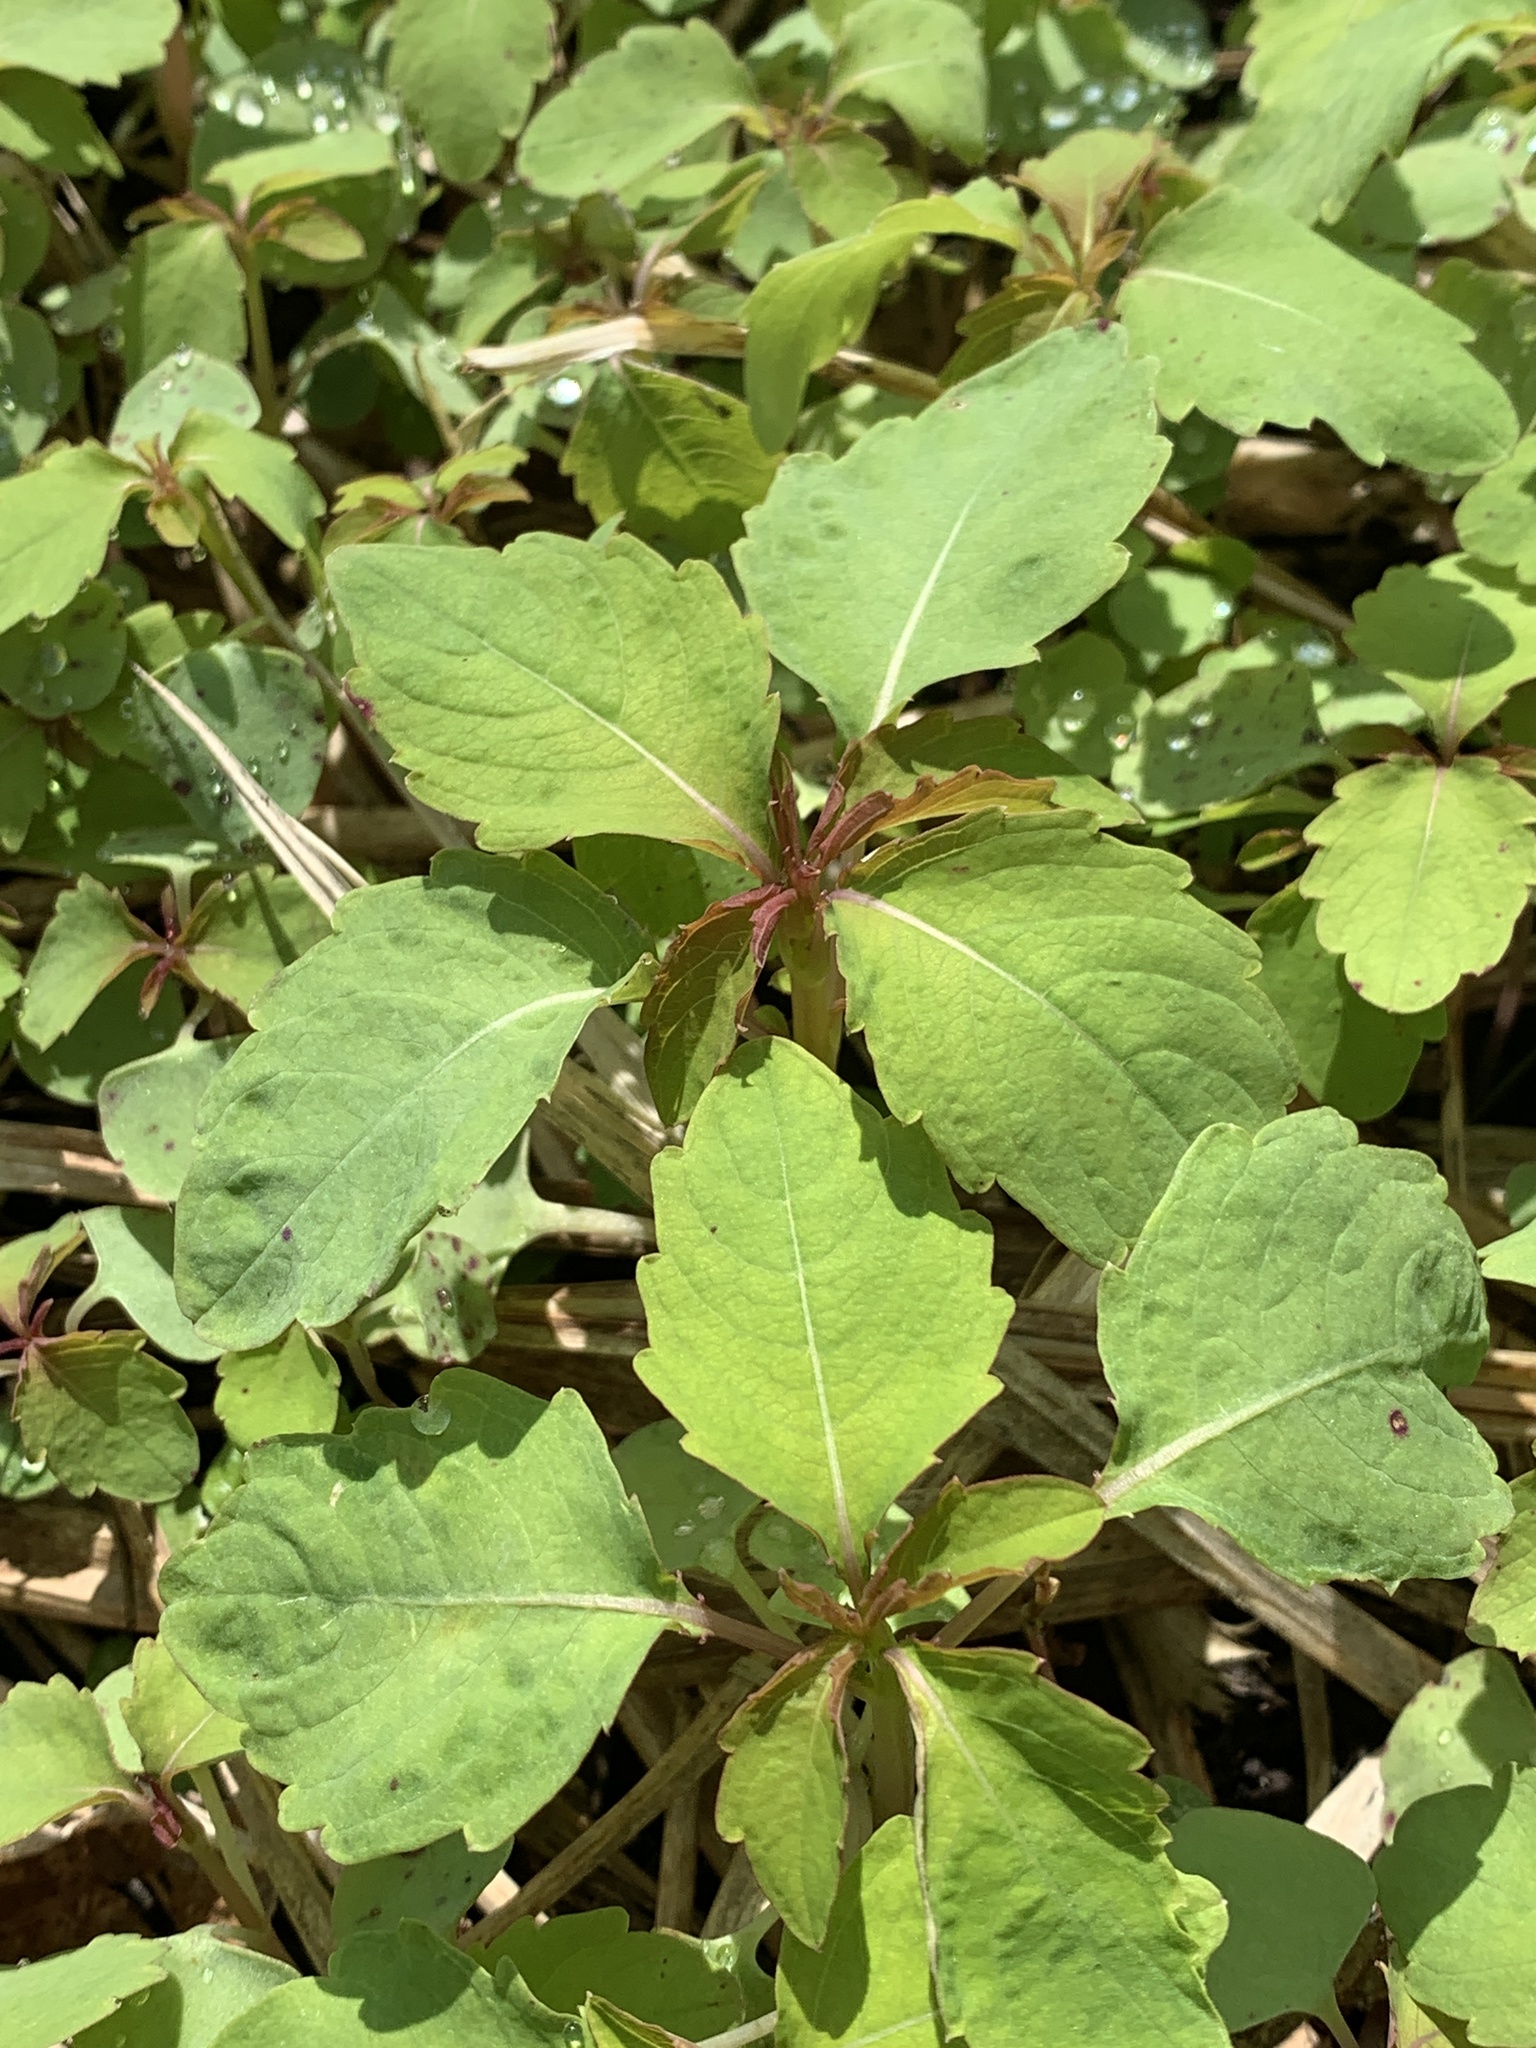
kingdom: Plantae
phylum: Tracheophyta
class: Magnoliopsida
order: Ericales
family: Balsaminaceae
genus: Impatiens
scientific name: Impatiens capensis
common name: Orange balsam
